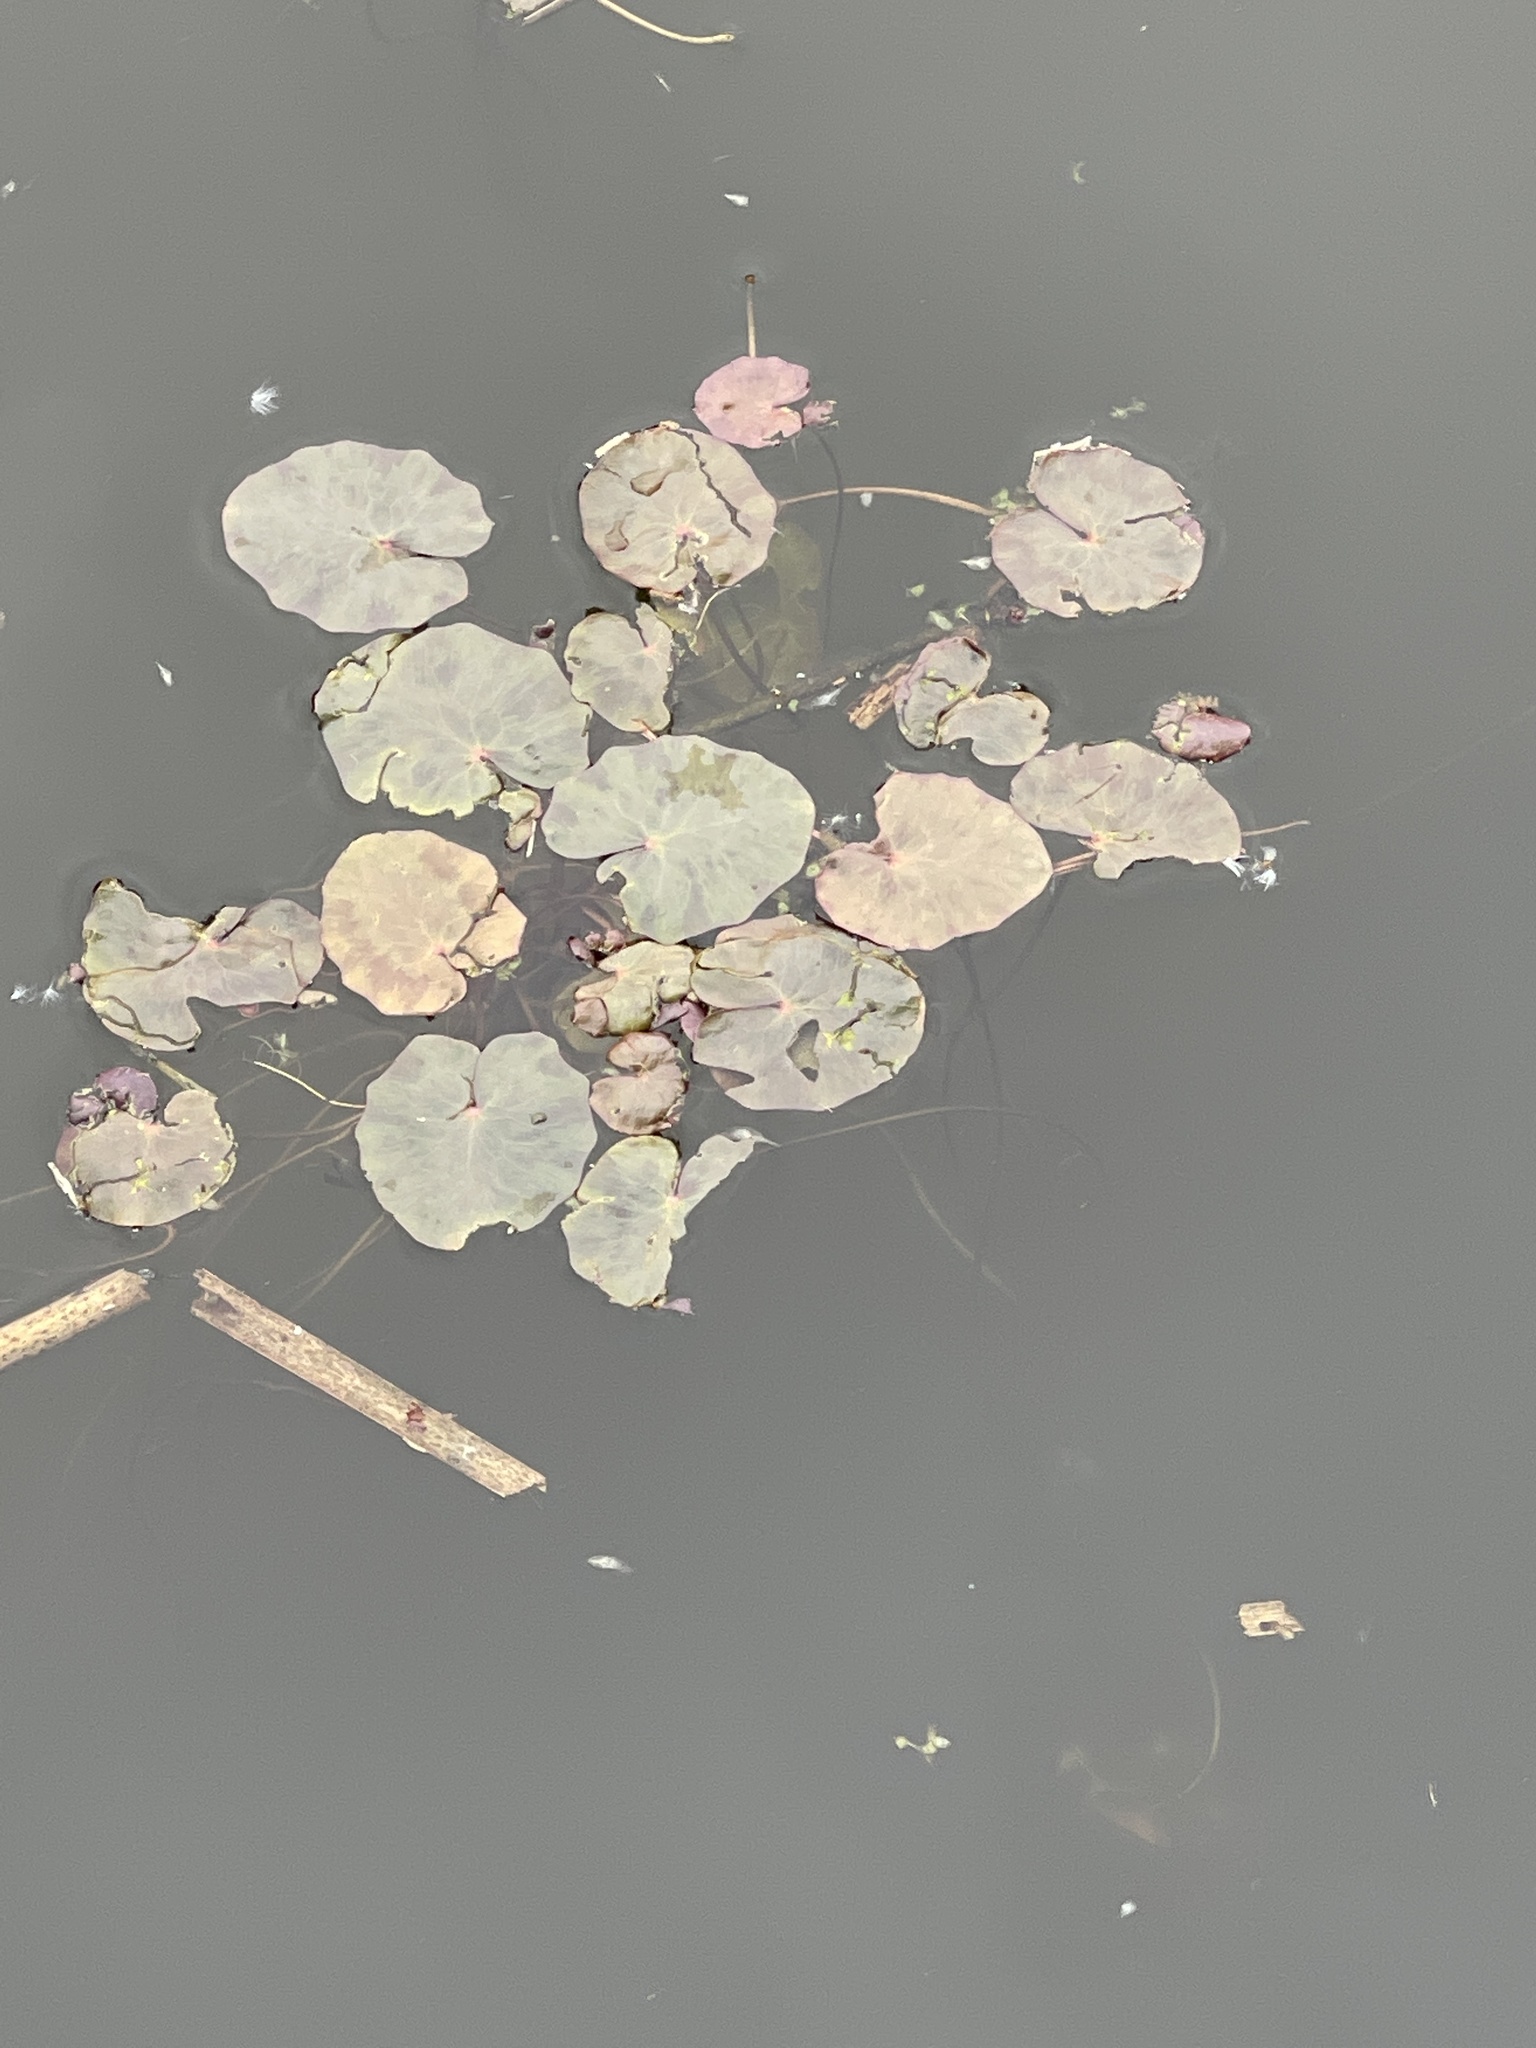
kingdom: Plantae
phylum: Tracheophyta
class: Magnoliopsida
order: Asterales
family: Menyanthaceae
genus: Nymphoides
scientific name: Nymphoides peltata
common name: Fringed water-lily
